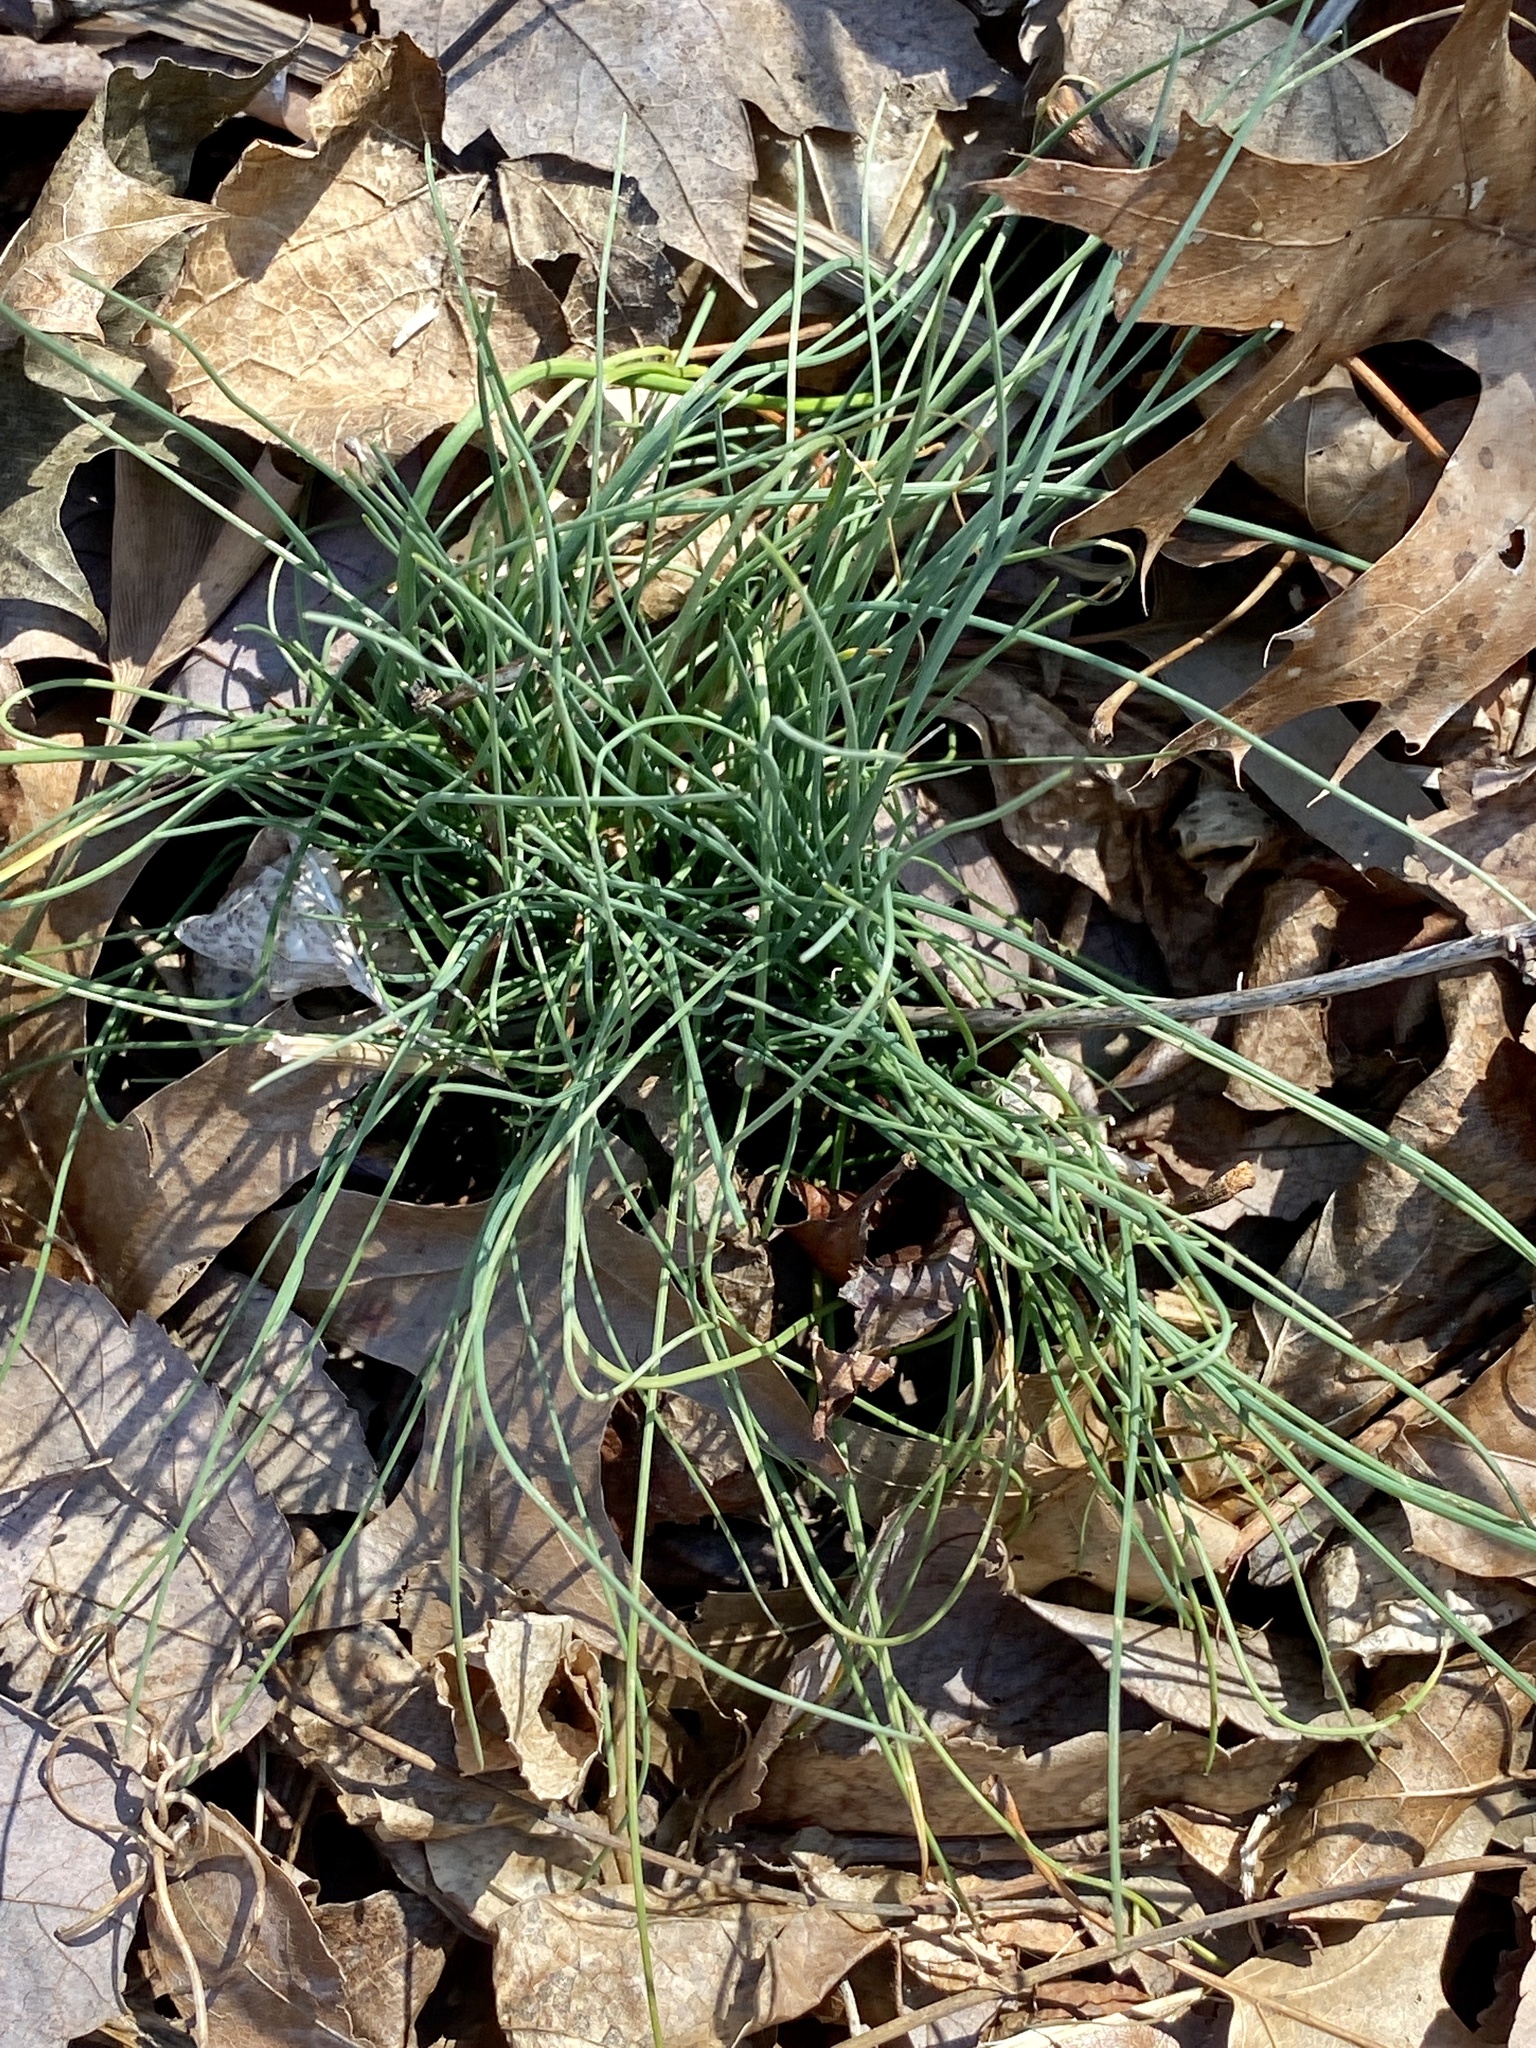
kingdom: Plantae
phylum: Tracheophyta
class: Liliopsida
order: Asparagales
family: Amaryllidaceae
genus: Allium
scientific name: Allium vineale
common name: Crow garlic
